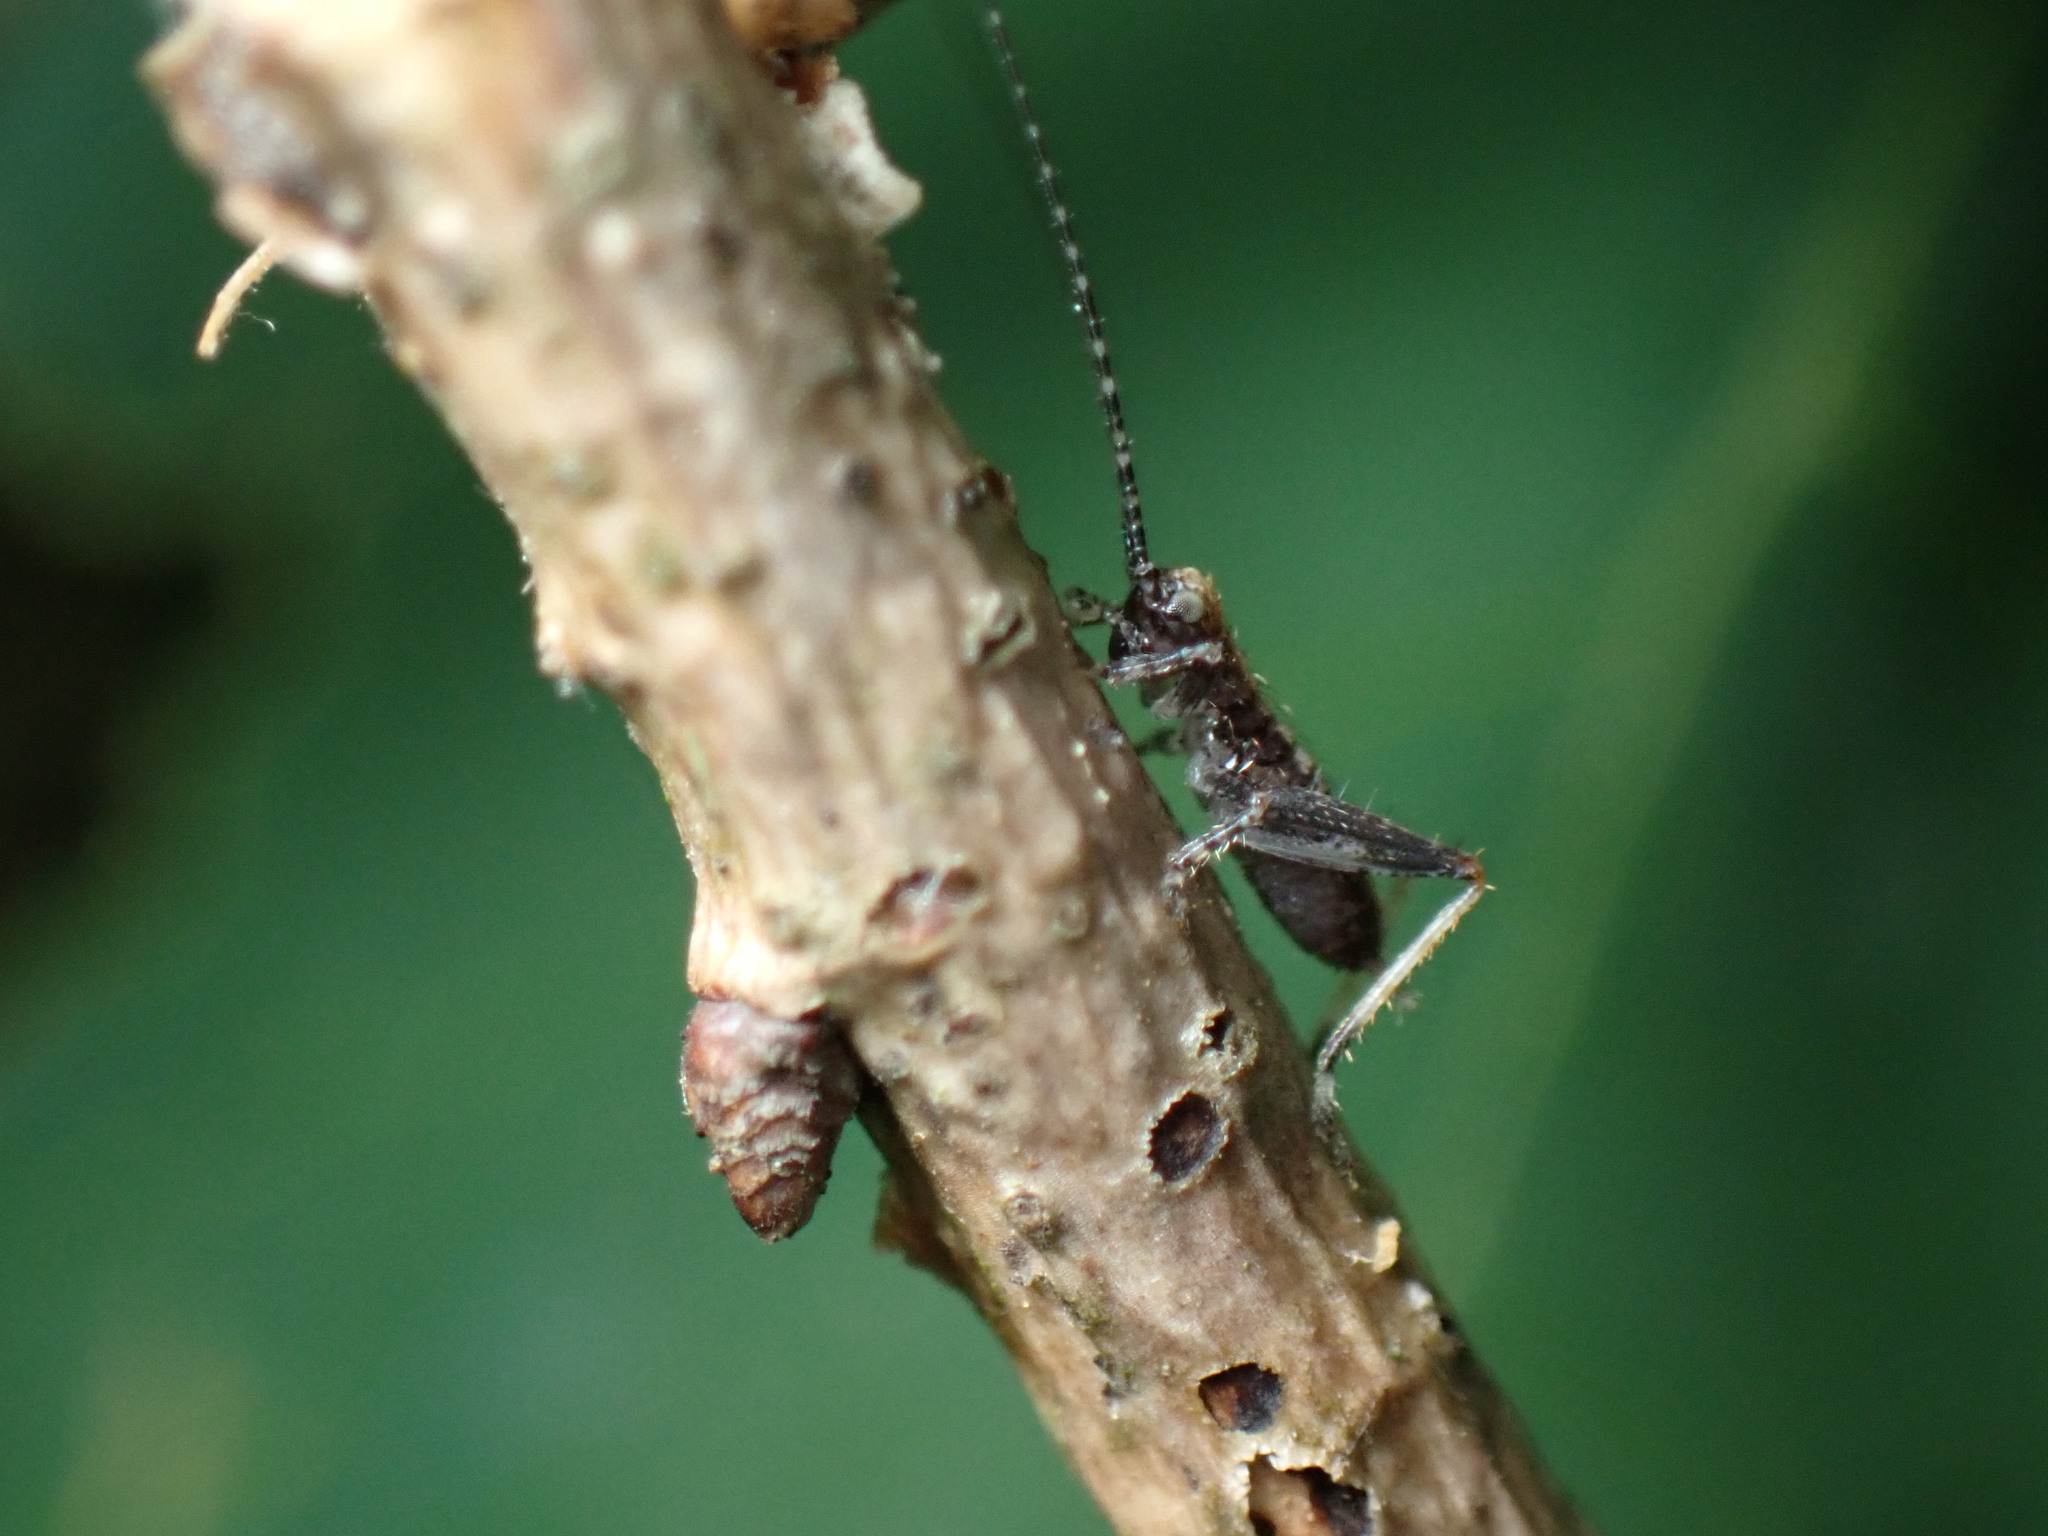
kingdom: Animalia
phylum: Arthropoda
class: Insecta
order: Orthoptera
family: Gryllidae
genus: Hapithus
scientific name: Hapithus saltator
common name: Jumping bush cricket
